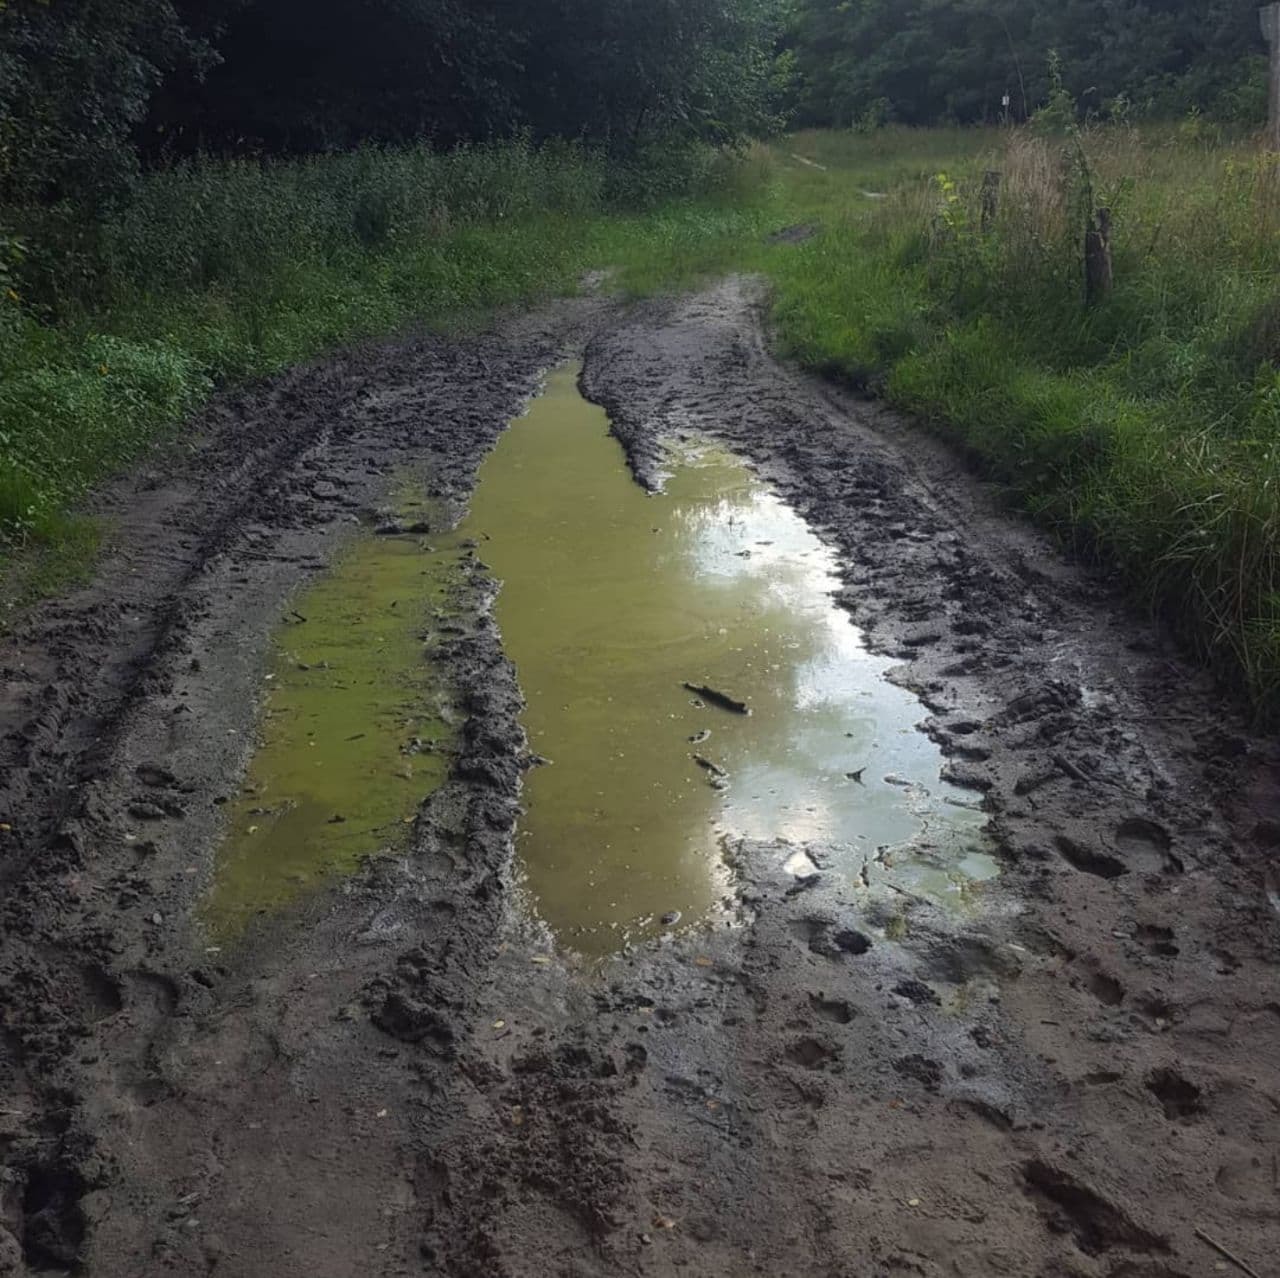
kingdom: Animalia
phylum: Arthropoda
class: Branchiopoda
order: Notostraca
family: Triopsidae
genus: Triops
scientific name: Triops cancriformis
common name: Tadpole shrimp
